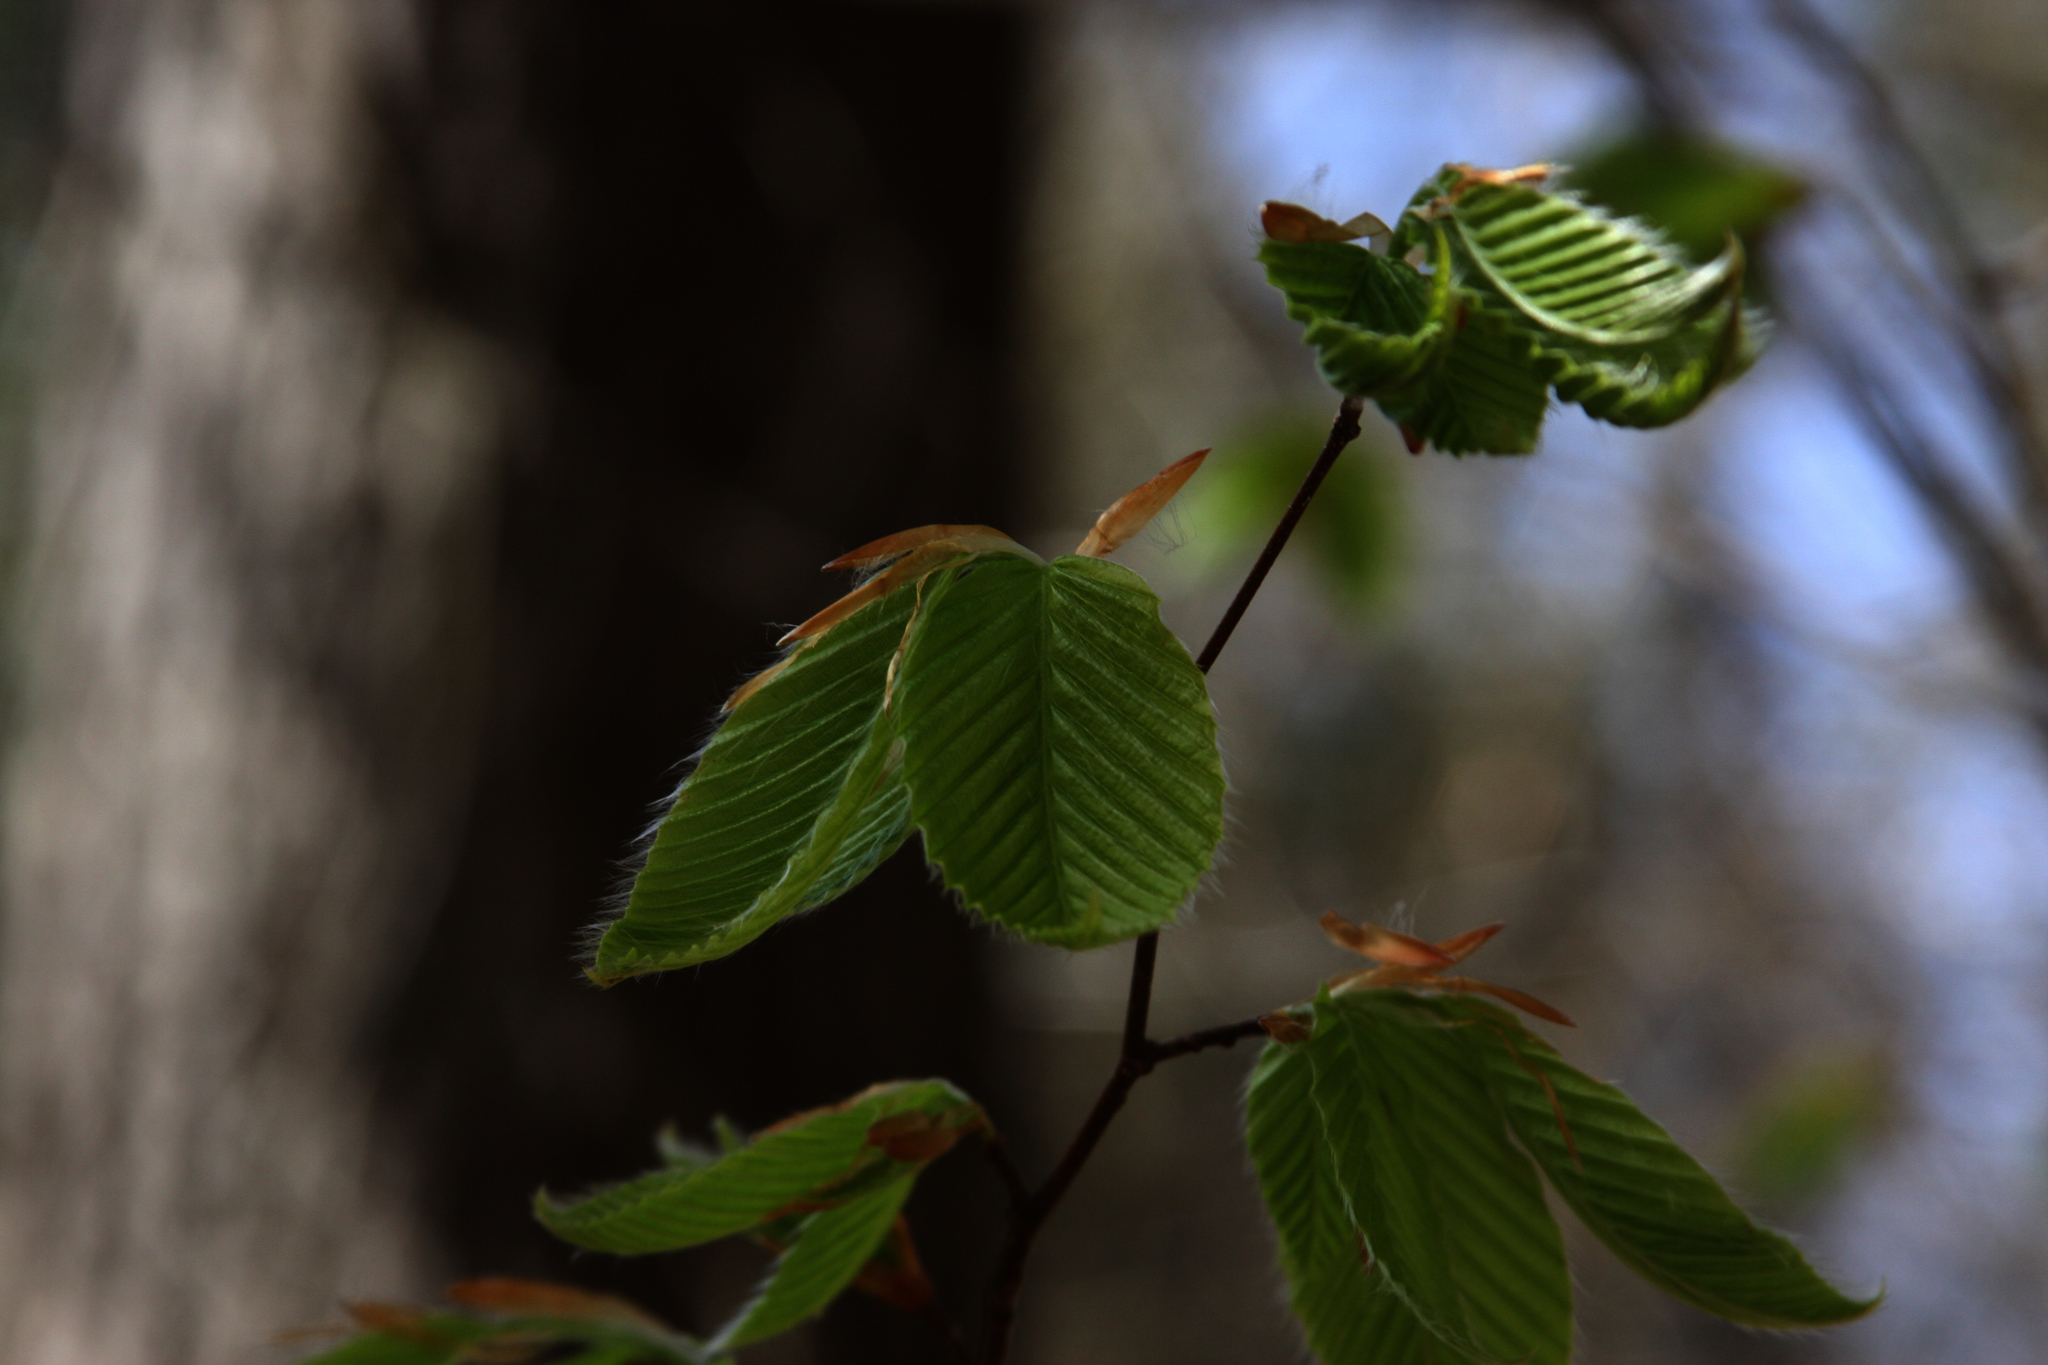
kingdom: Plantae
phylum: Tracheophyta
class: Magnoliopsida
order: Fagales
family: Fagaceae
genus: Fagus
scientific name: Fagus grandifolia
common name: American beech
